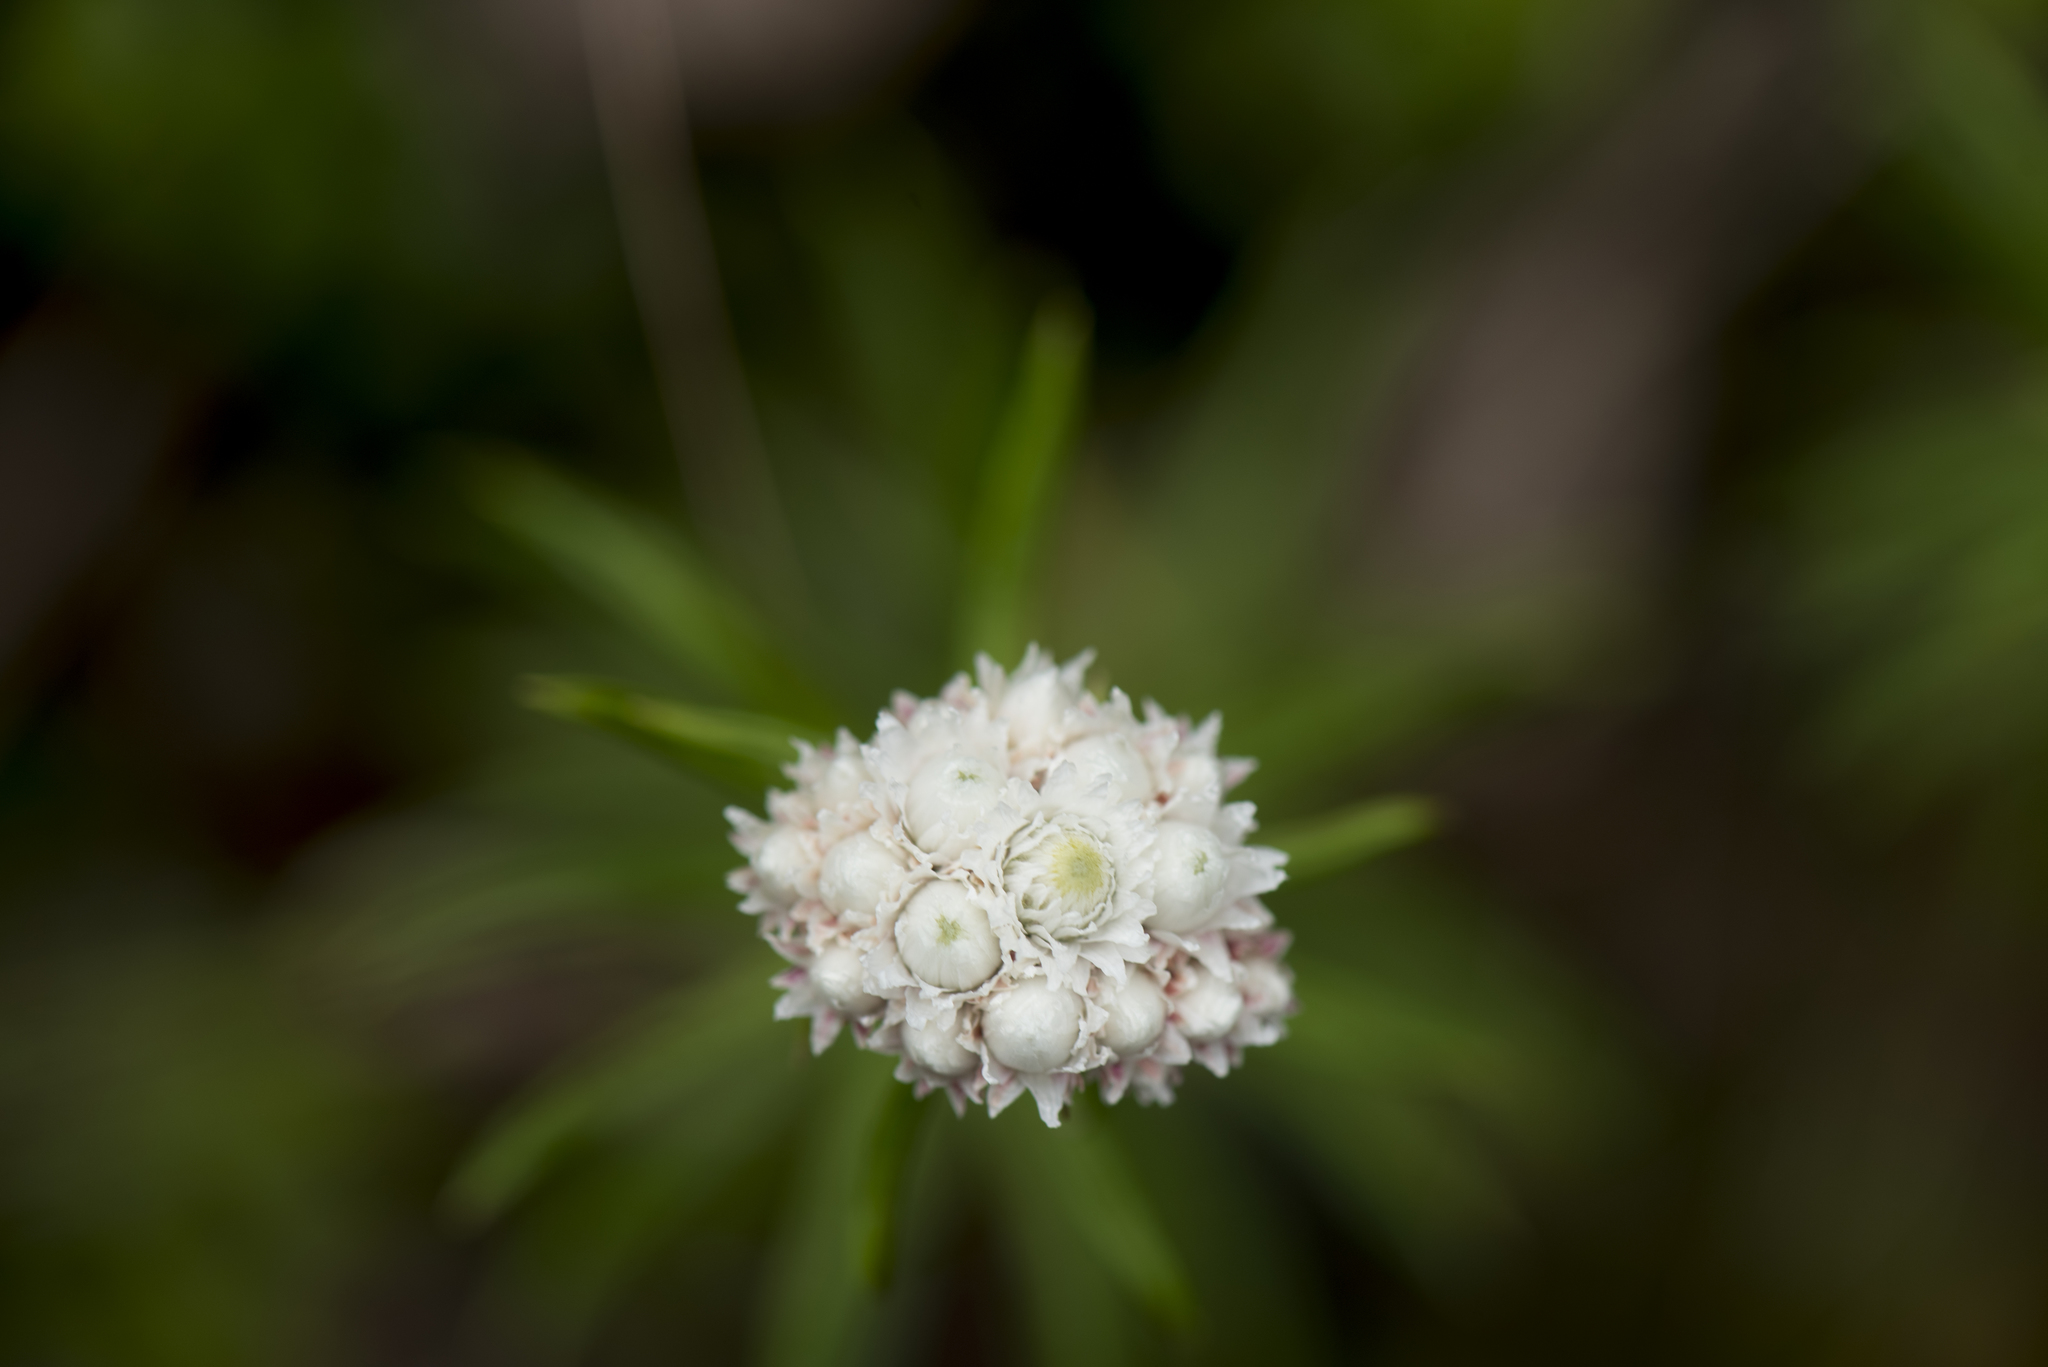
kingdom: Plantae
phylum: Tracheophyta
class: Magnoliopsida
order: Asterales
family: Asteraceae
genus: Anaphalis
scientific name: Anaphalis morrisonicola
